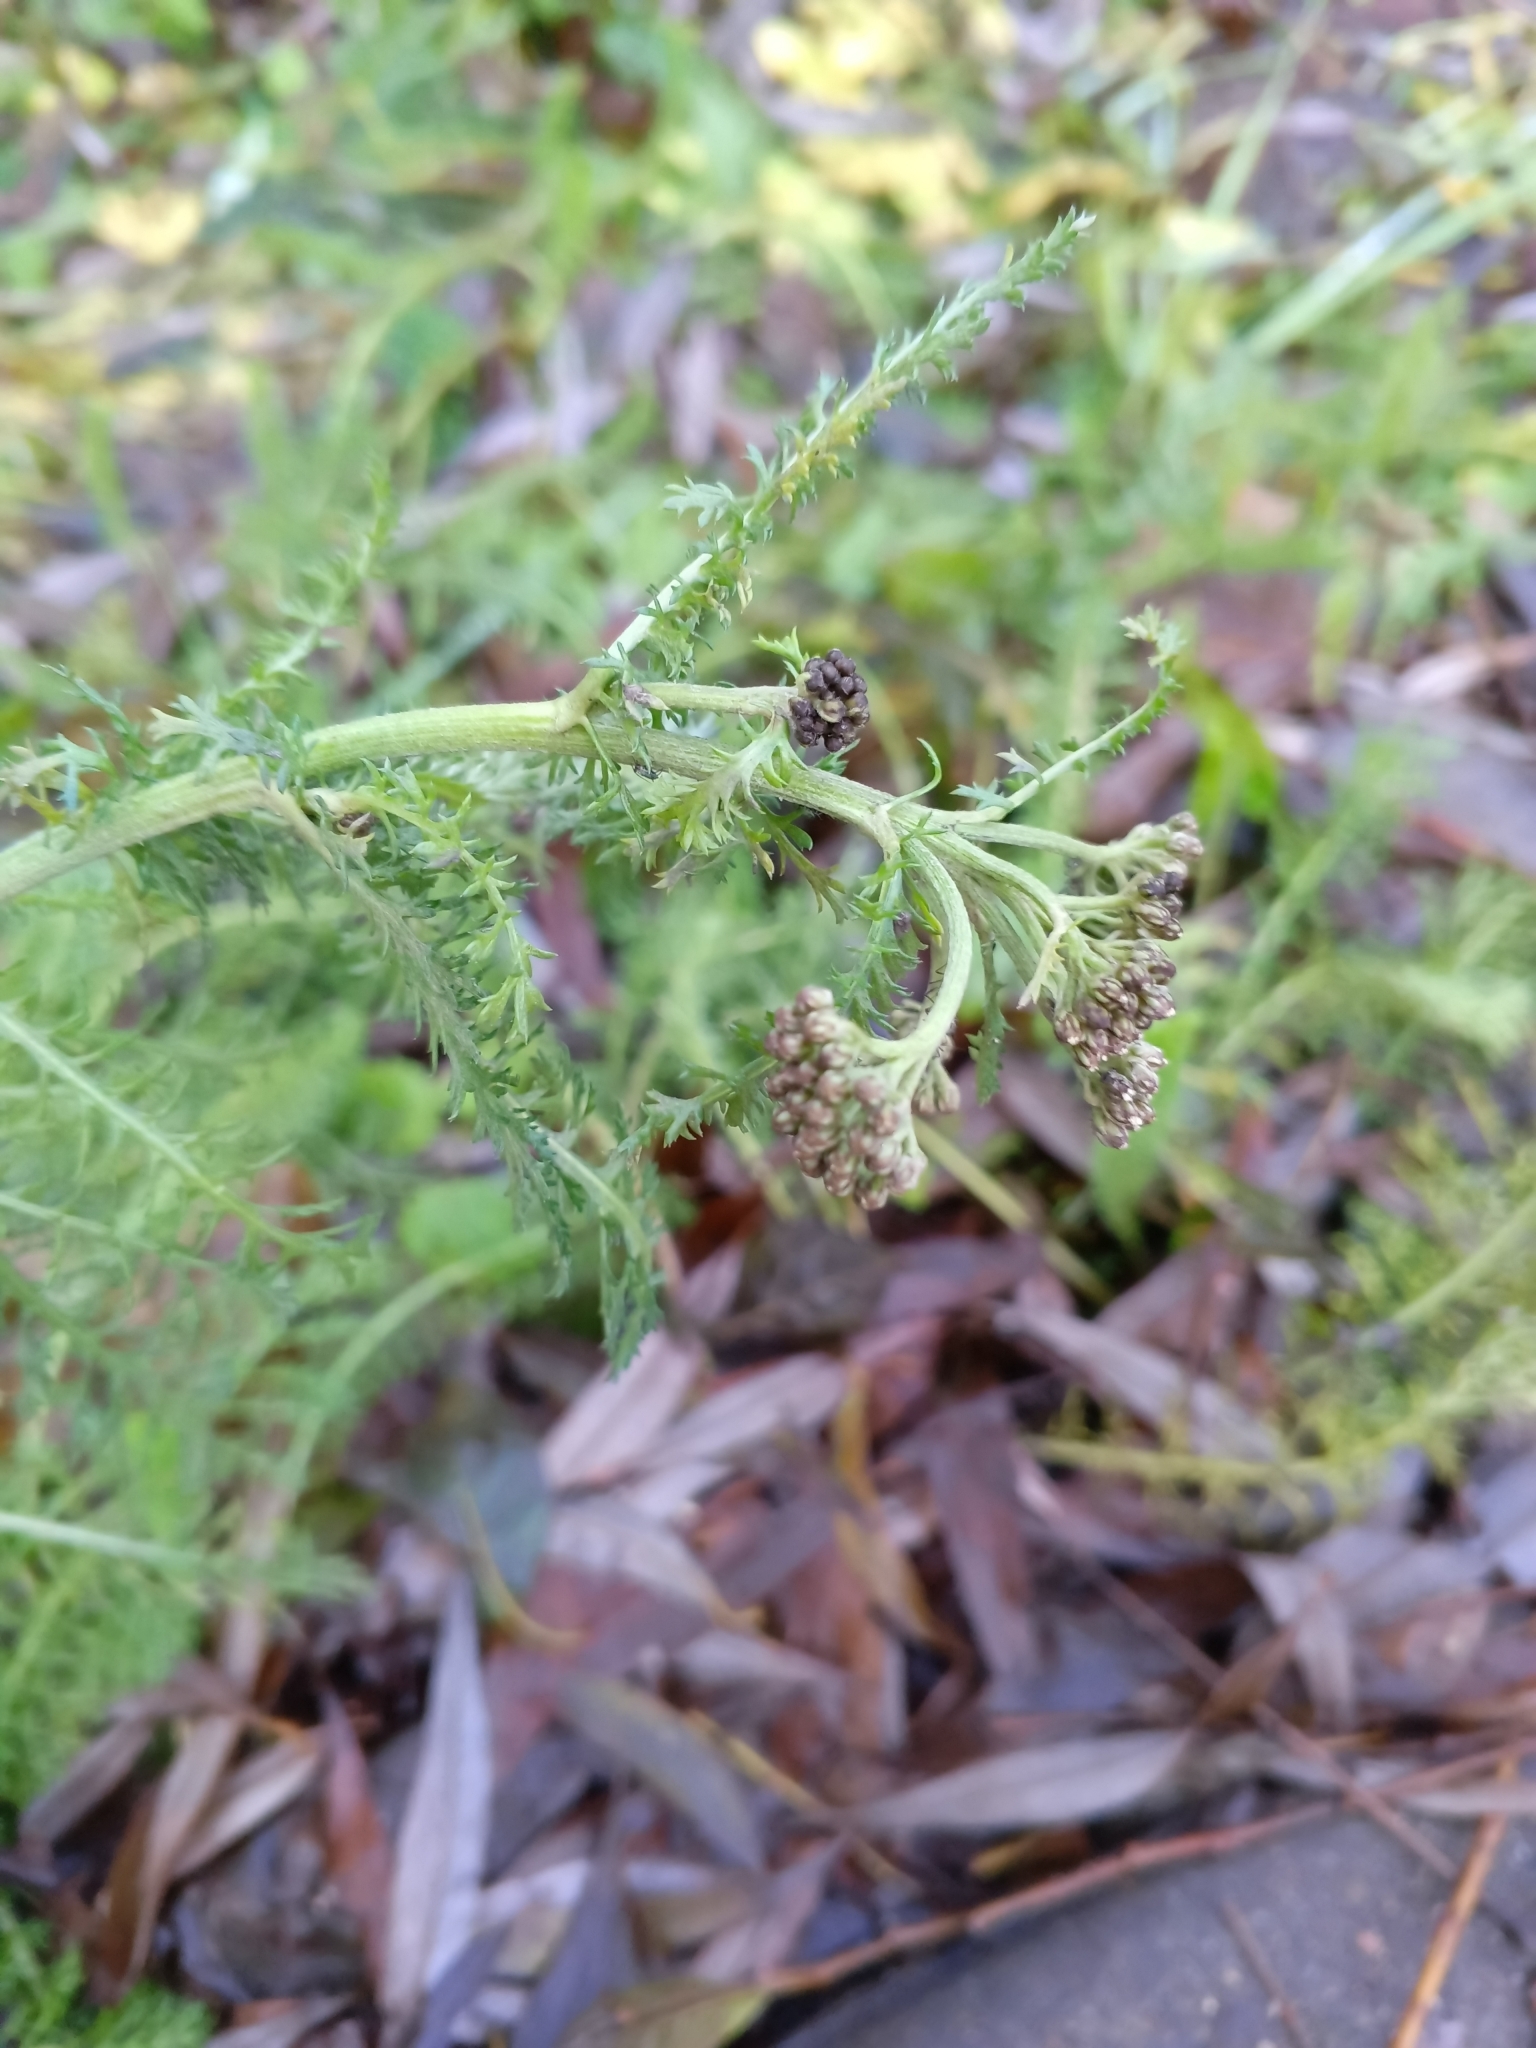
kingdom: Plantae
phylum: Tracheophyta
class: Magnoliopsida
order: Asterales
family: Asteraceae
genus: Achillea
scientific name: Achillea millefolium
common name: Yarrow
